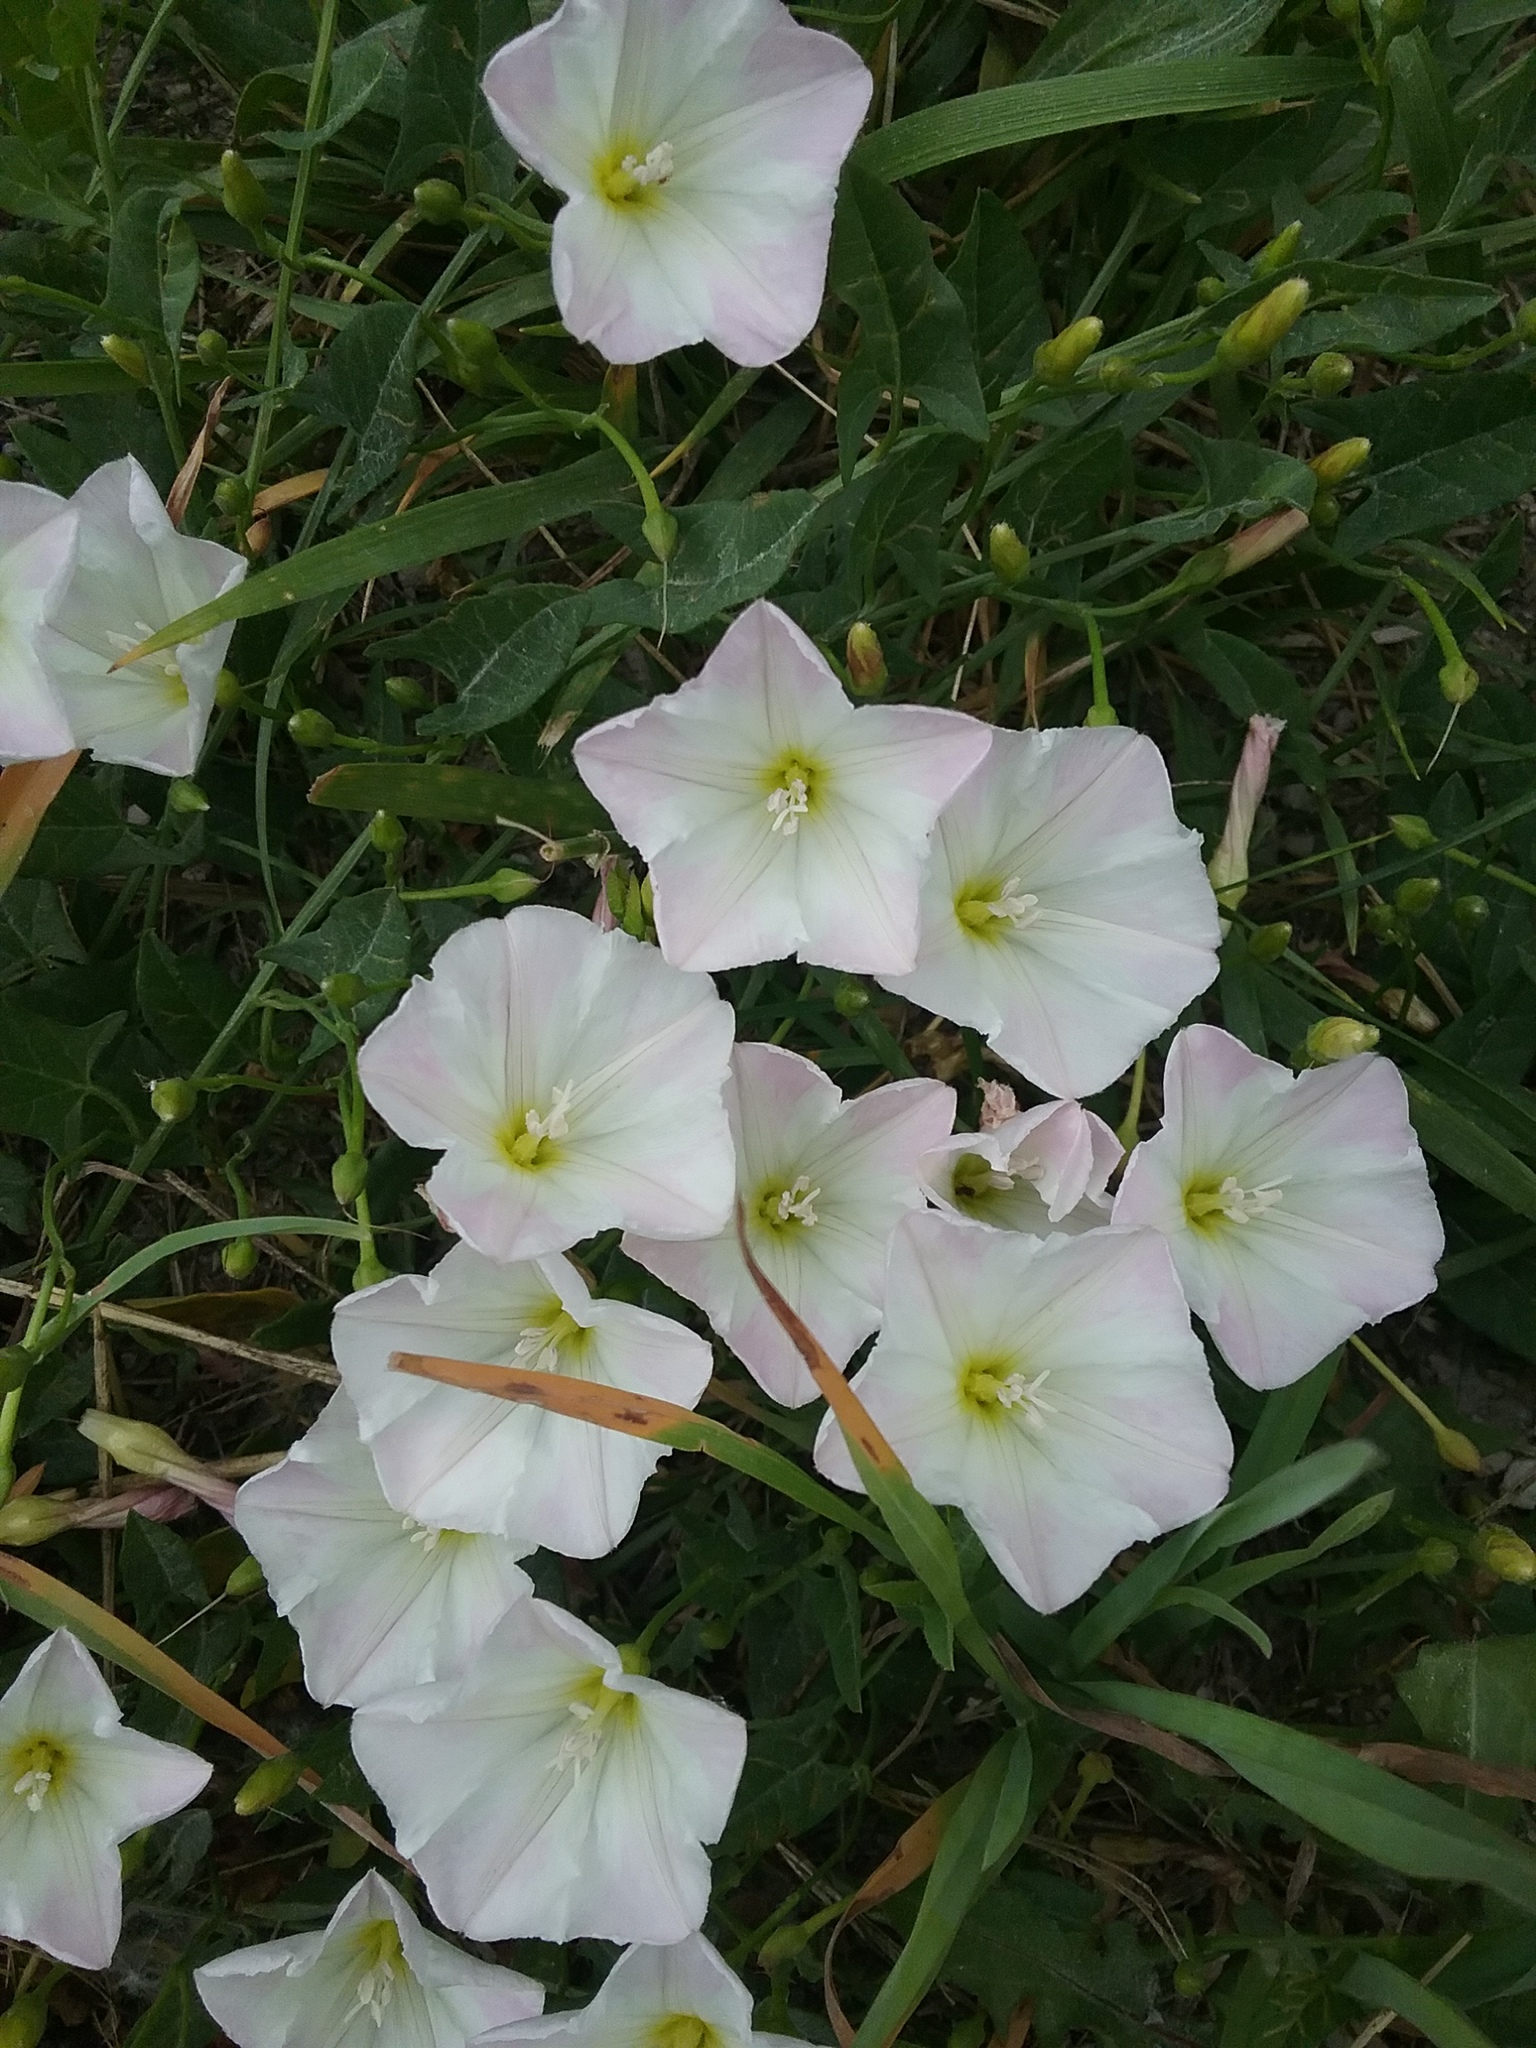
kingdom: Plantae
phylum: Tracheophyta
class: Magnoliopsida
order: Solanales
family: Convolvulaceae
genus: Convolvulus
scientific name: Convolvulus arvensis
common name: Field bindweed
